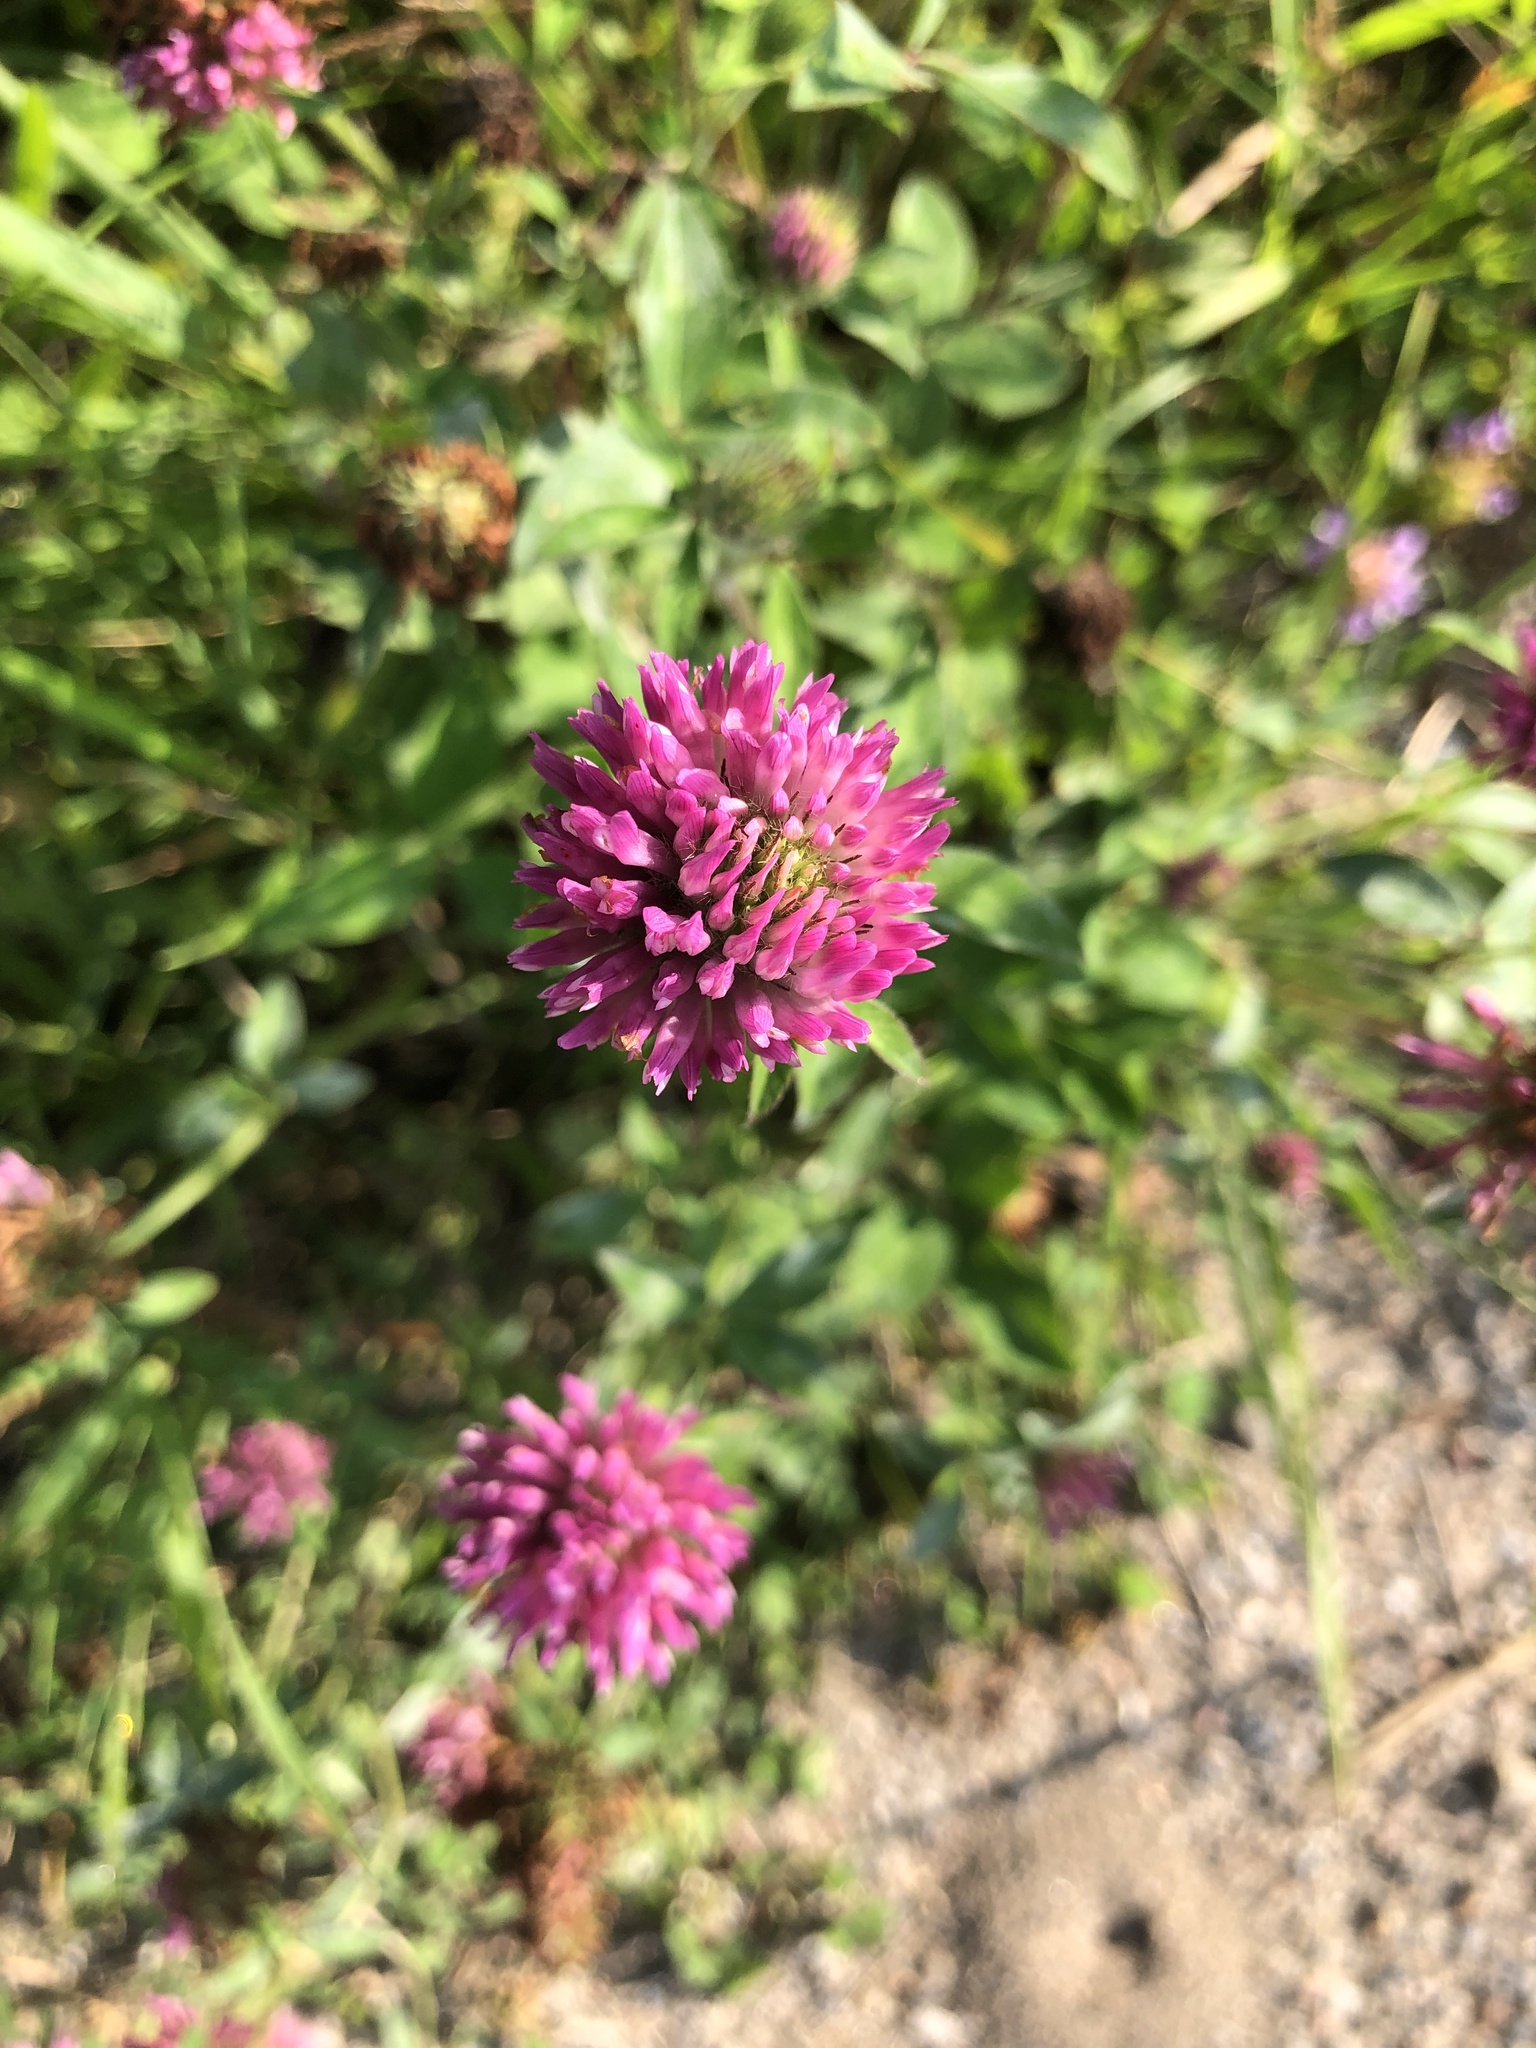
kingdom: Plantae
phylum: Tracheophyta
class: Magnoliopsida
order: Fabales
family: Fabaceae
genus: Trifolium
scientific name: Trifolium pratense
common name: Red clover
